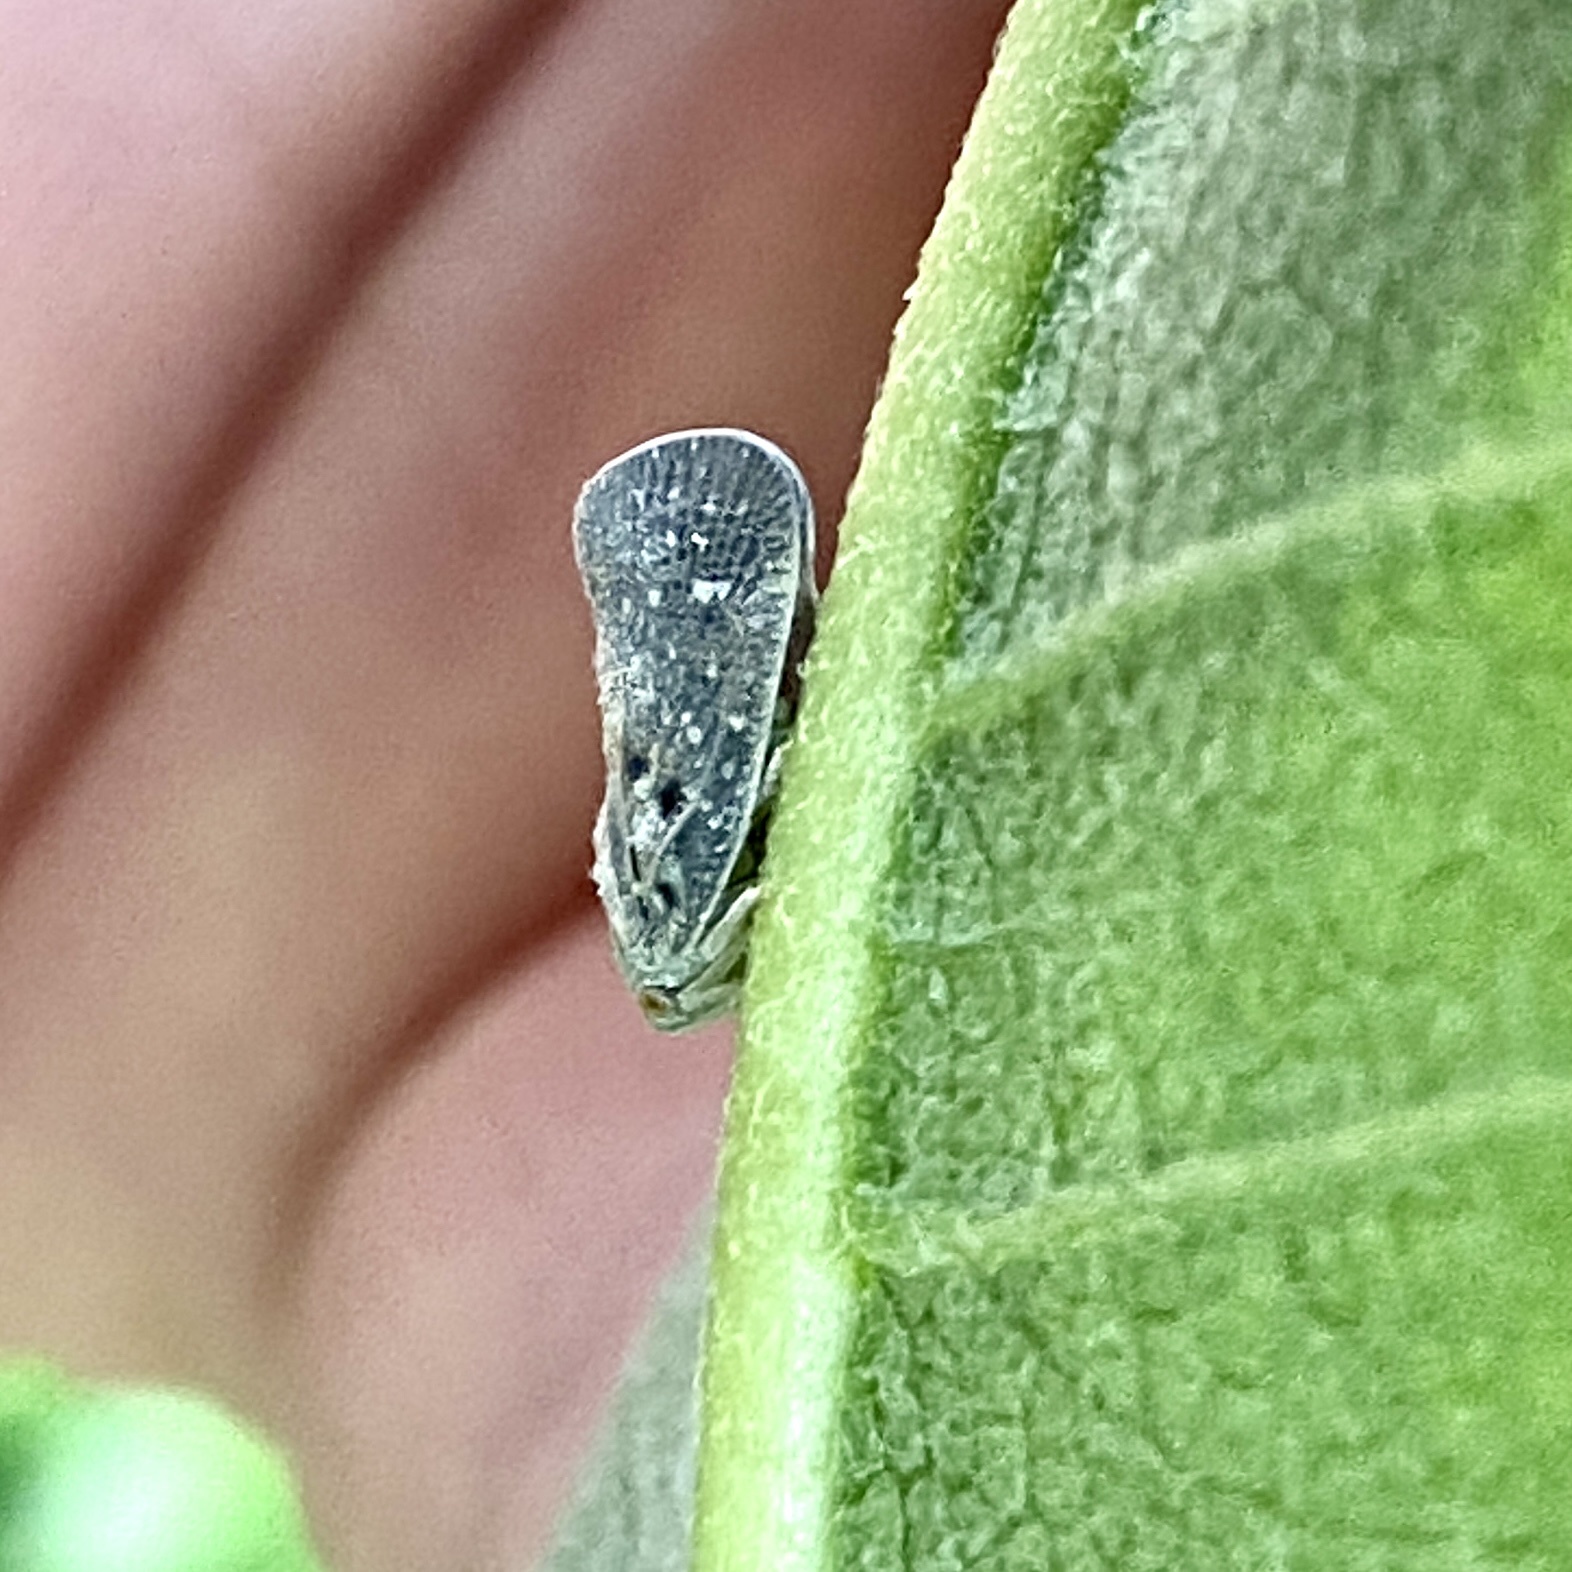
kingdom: Animalia
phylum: Arthropoda
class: Insecta
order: Hemiptera
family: Flatidae
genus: Metcalfa
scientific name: Metcalfa pruinosa
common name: Citrus flatid planthopper
